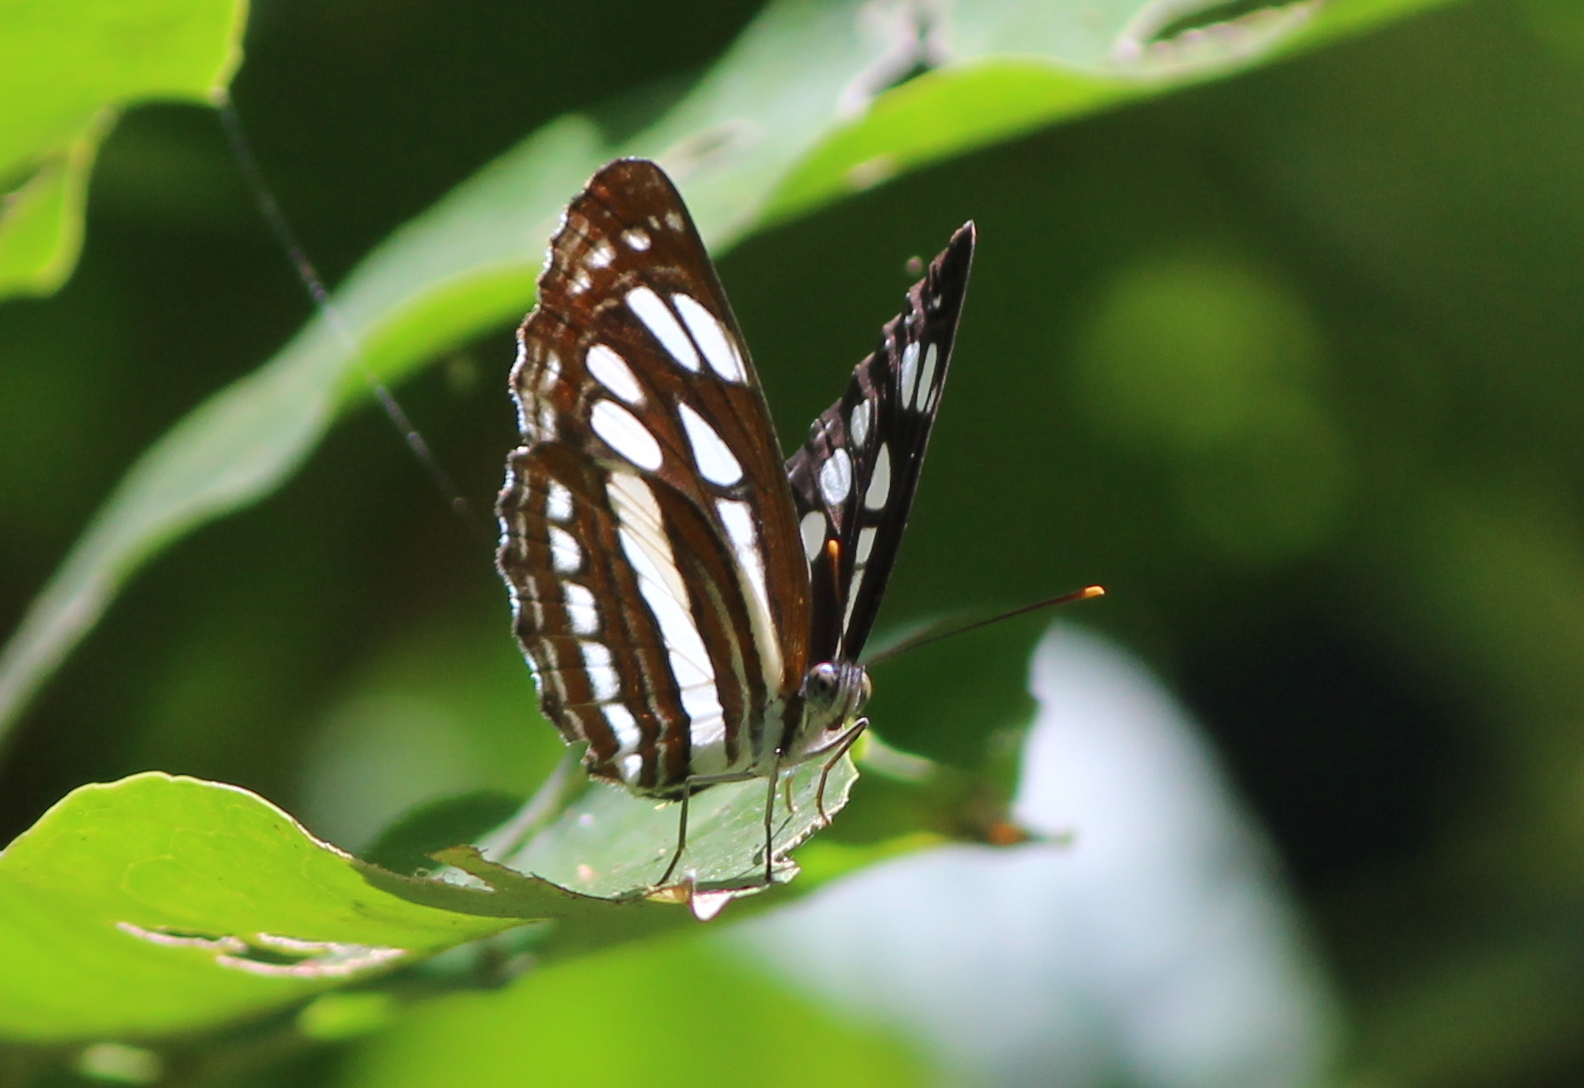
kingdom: Animalia
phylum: Arthropoda
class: Insecta
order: Lepidoptera
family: Nymphalidae
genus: Neptis
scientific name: Neptis hylas
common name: Common sailer
